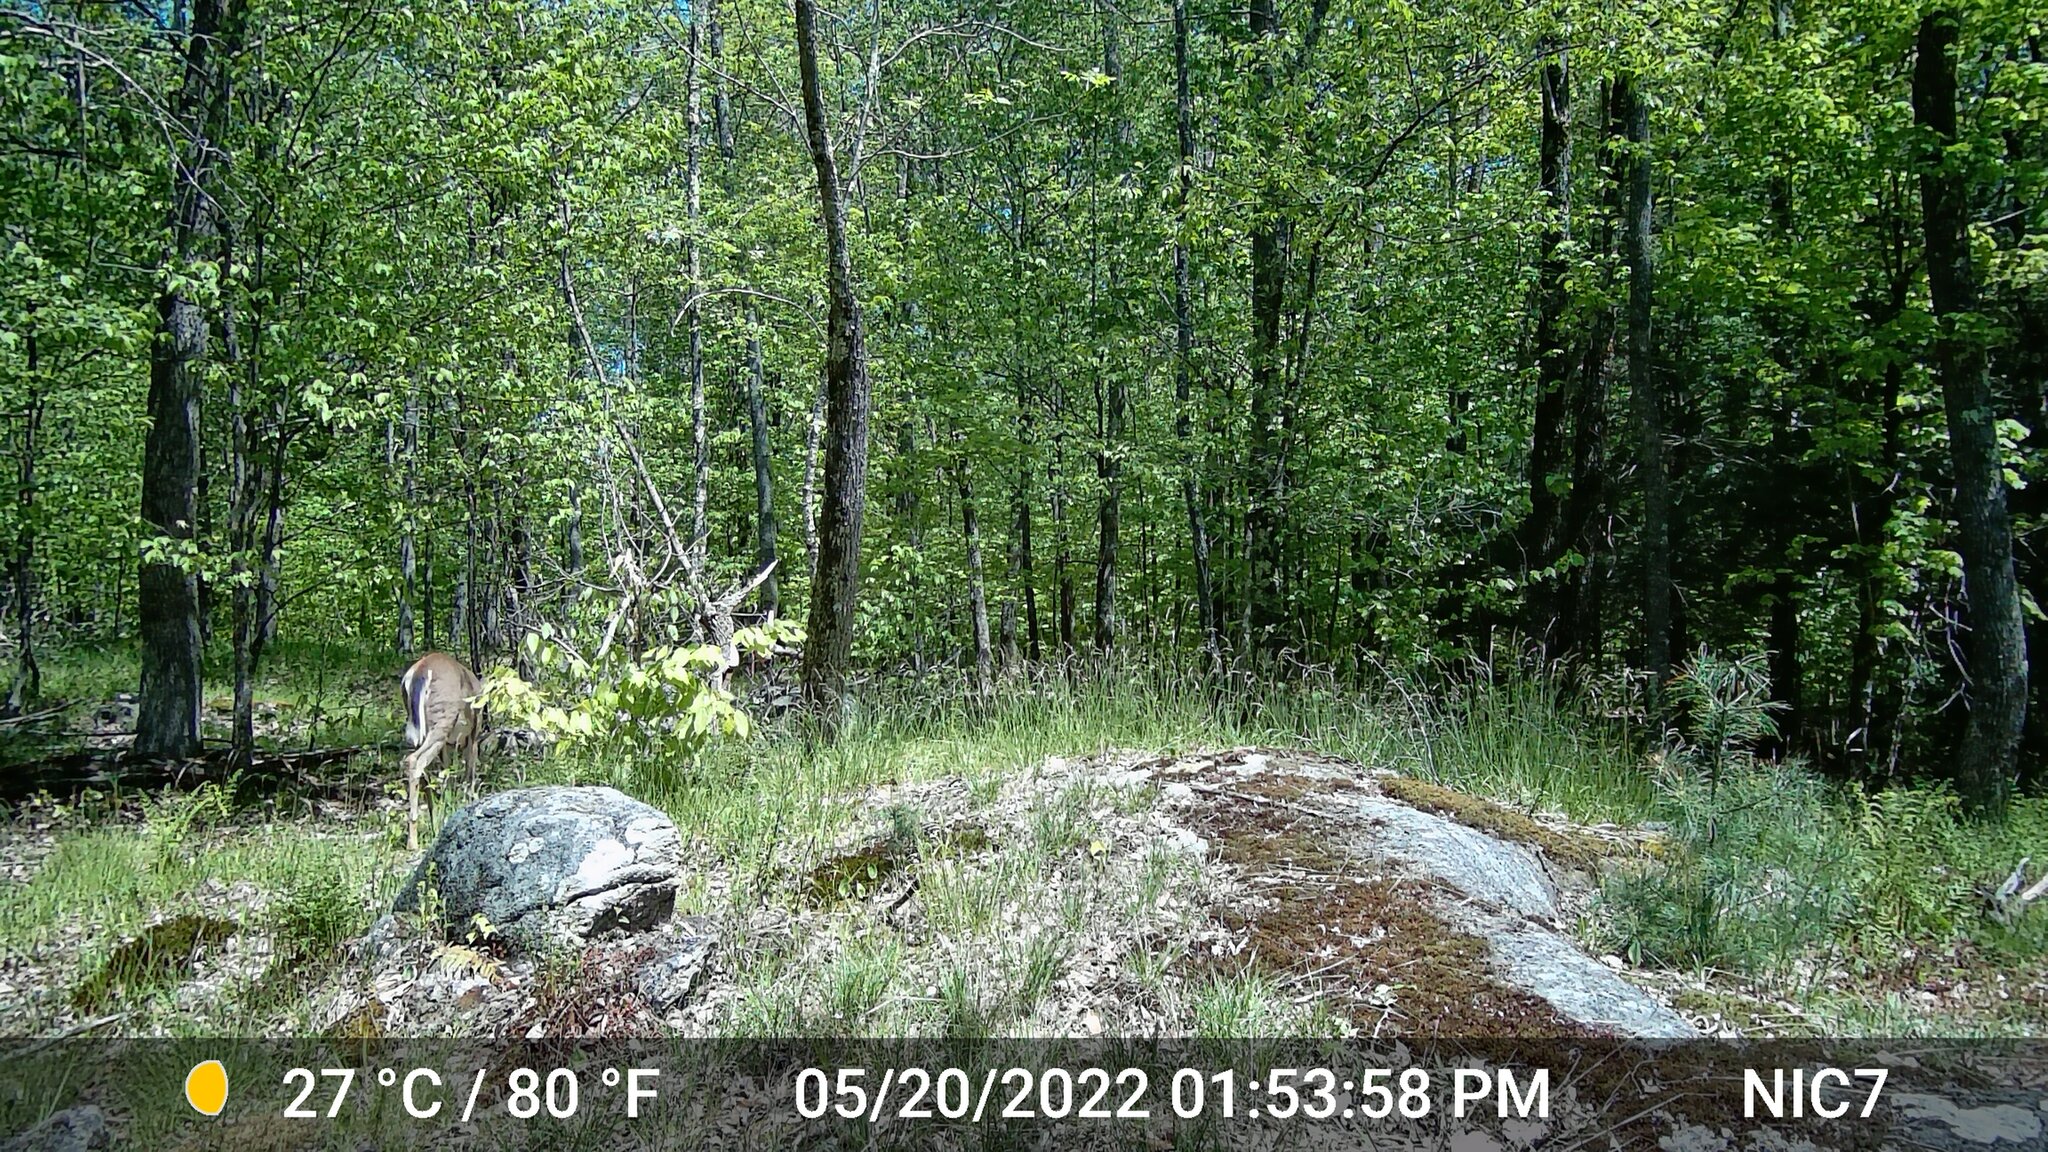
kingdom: Animalia
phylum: Chordata
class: Mammalia
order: Artiodactyla
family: Cervidae
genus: Odocoileus
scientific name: Odocoileus virginianus
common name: White-tailed deer
